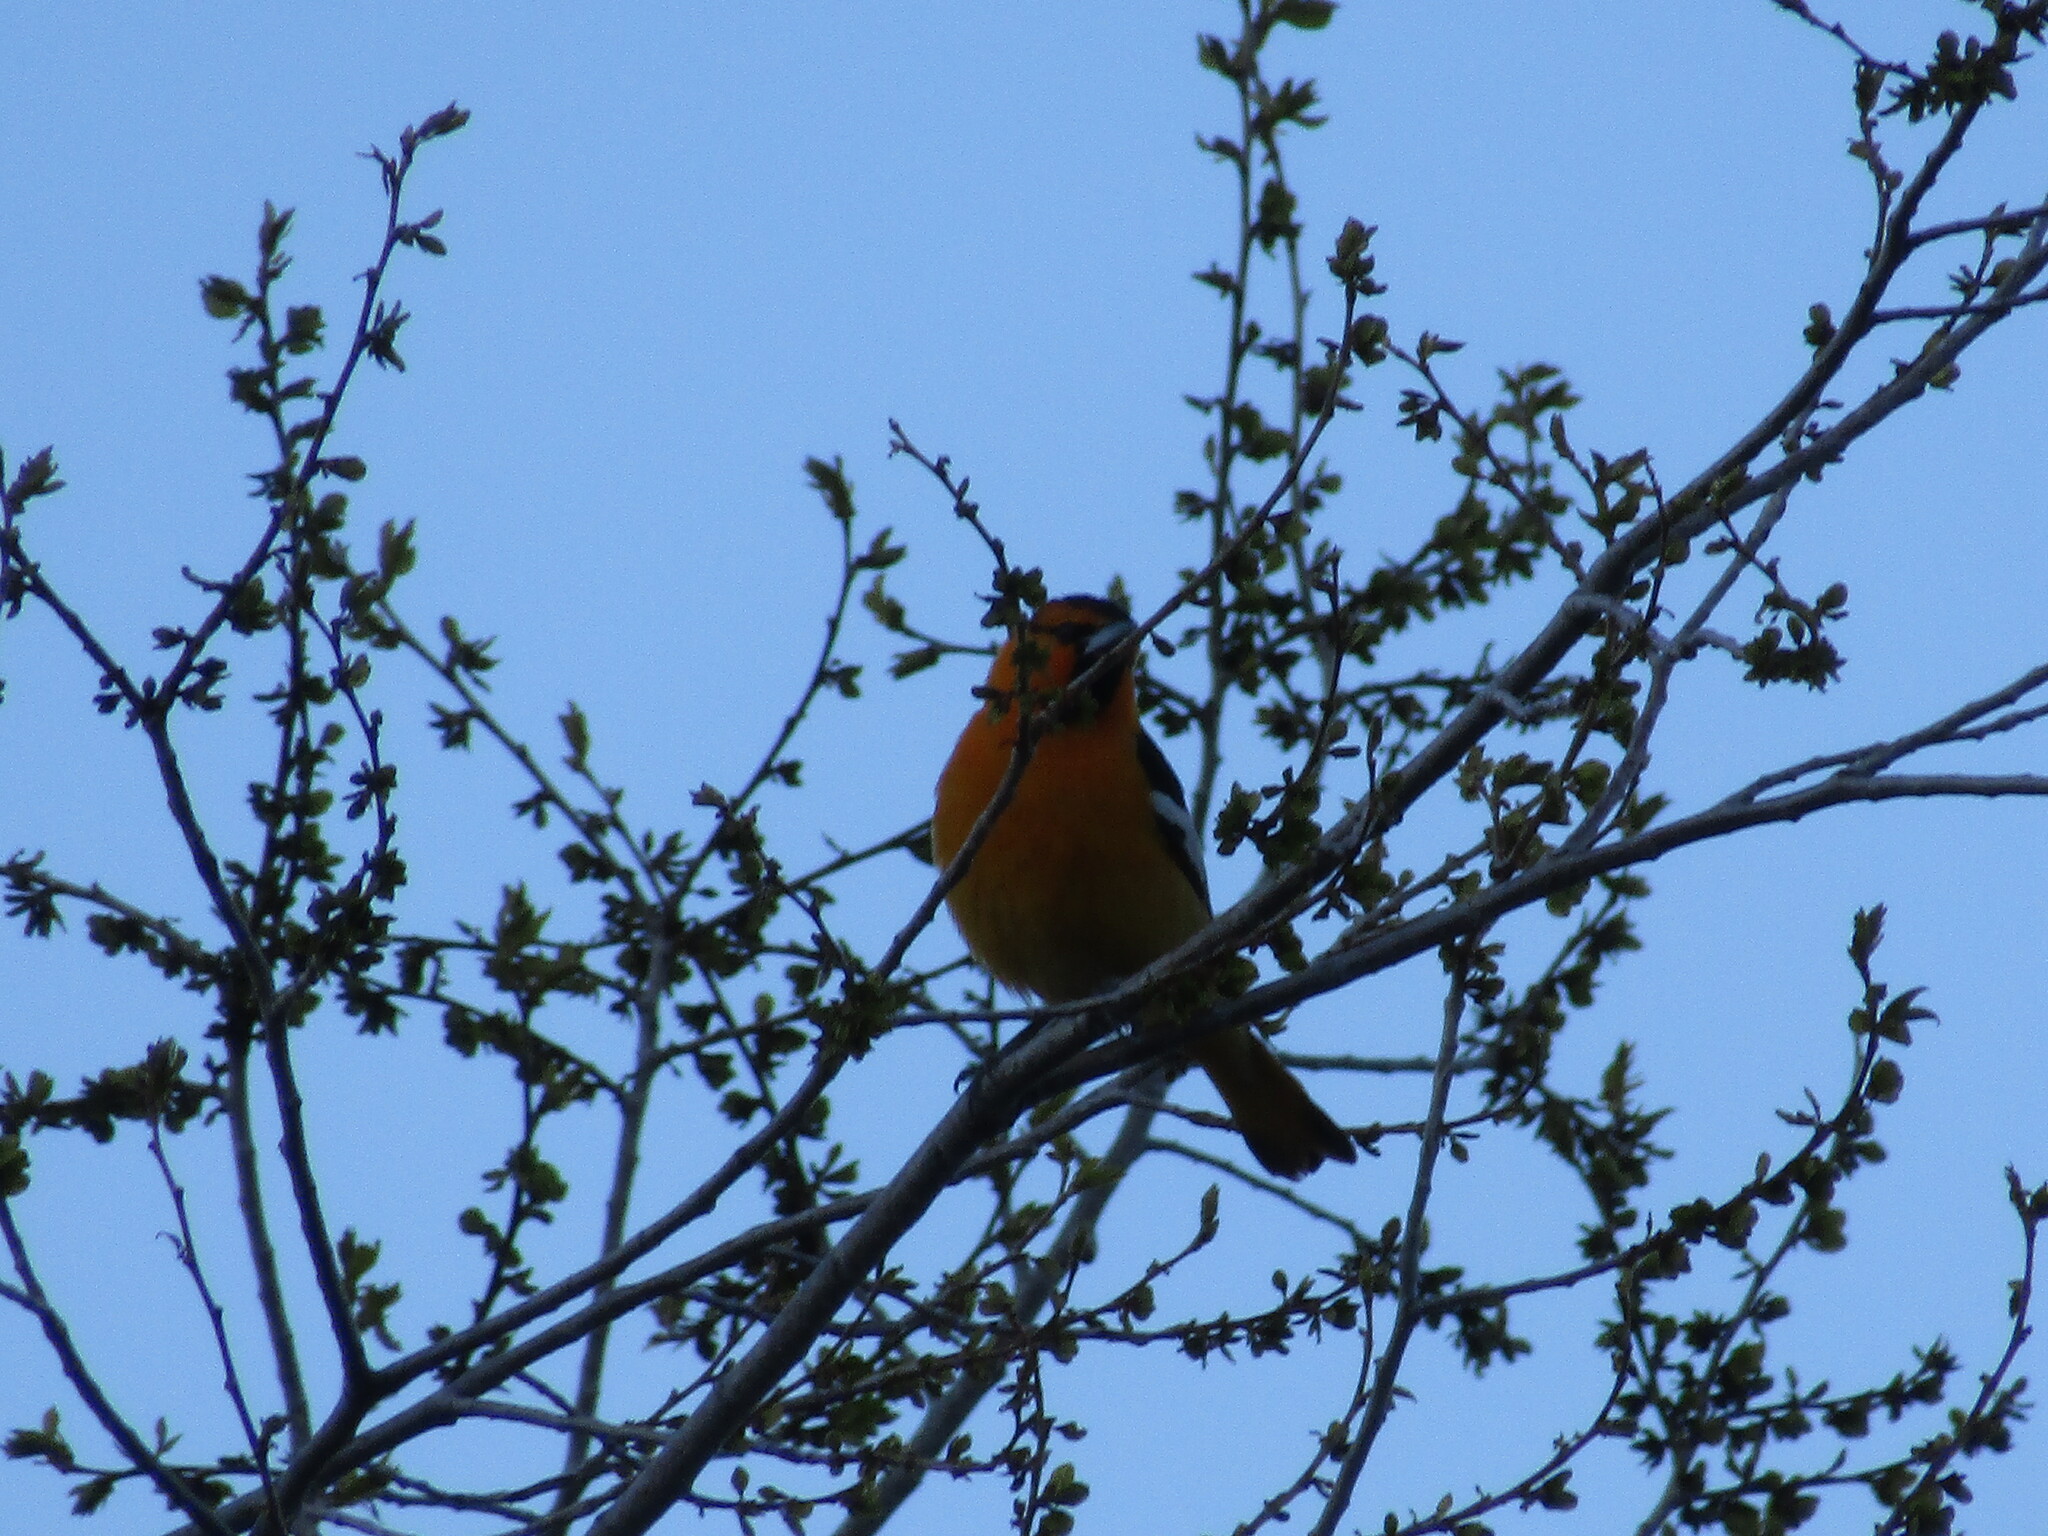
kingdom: Animalia
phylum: Chordata
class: Aves
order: Passeriformes
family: Icteridae
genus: Icterus
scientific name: Icterus bullockii
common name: Bullock's oriole
